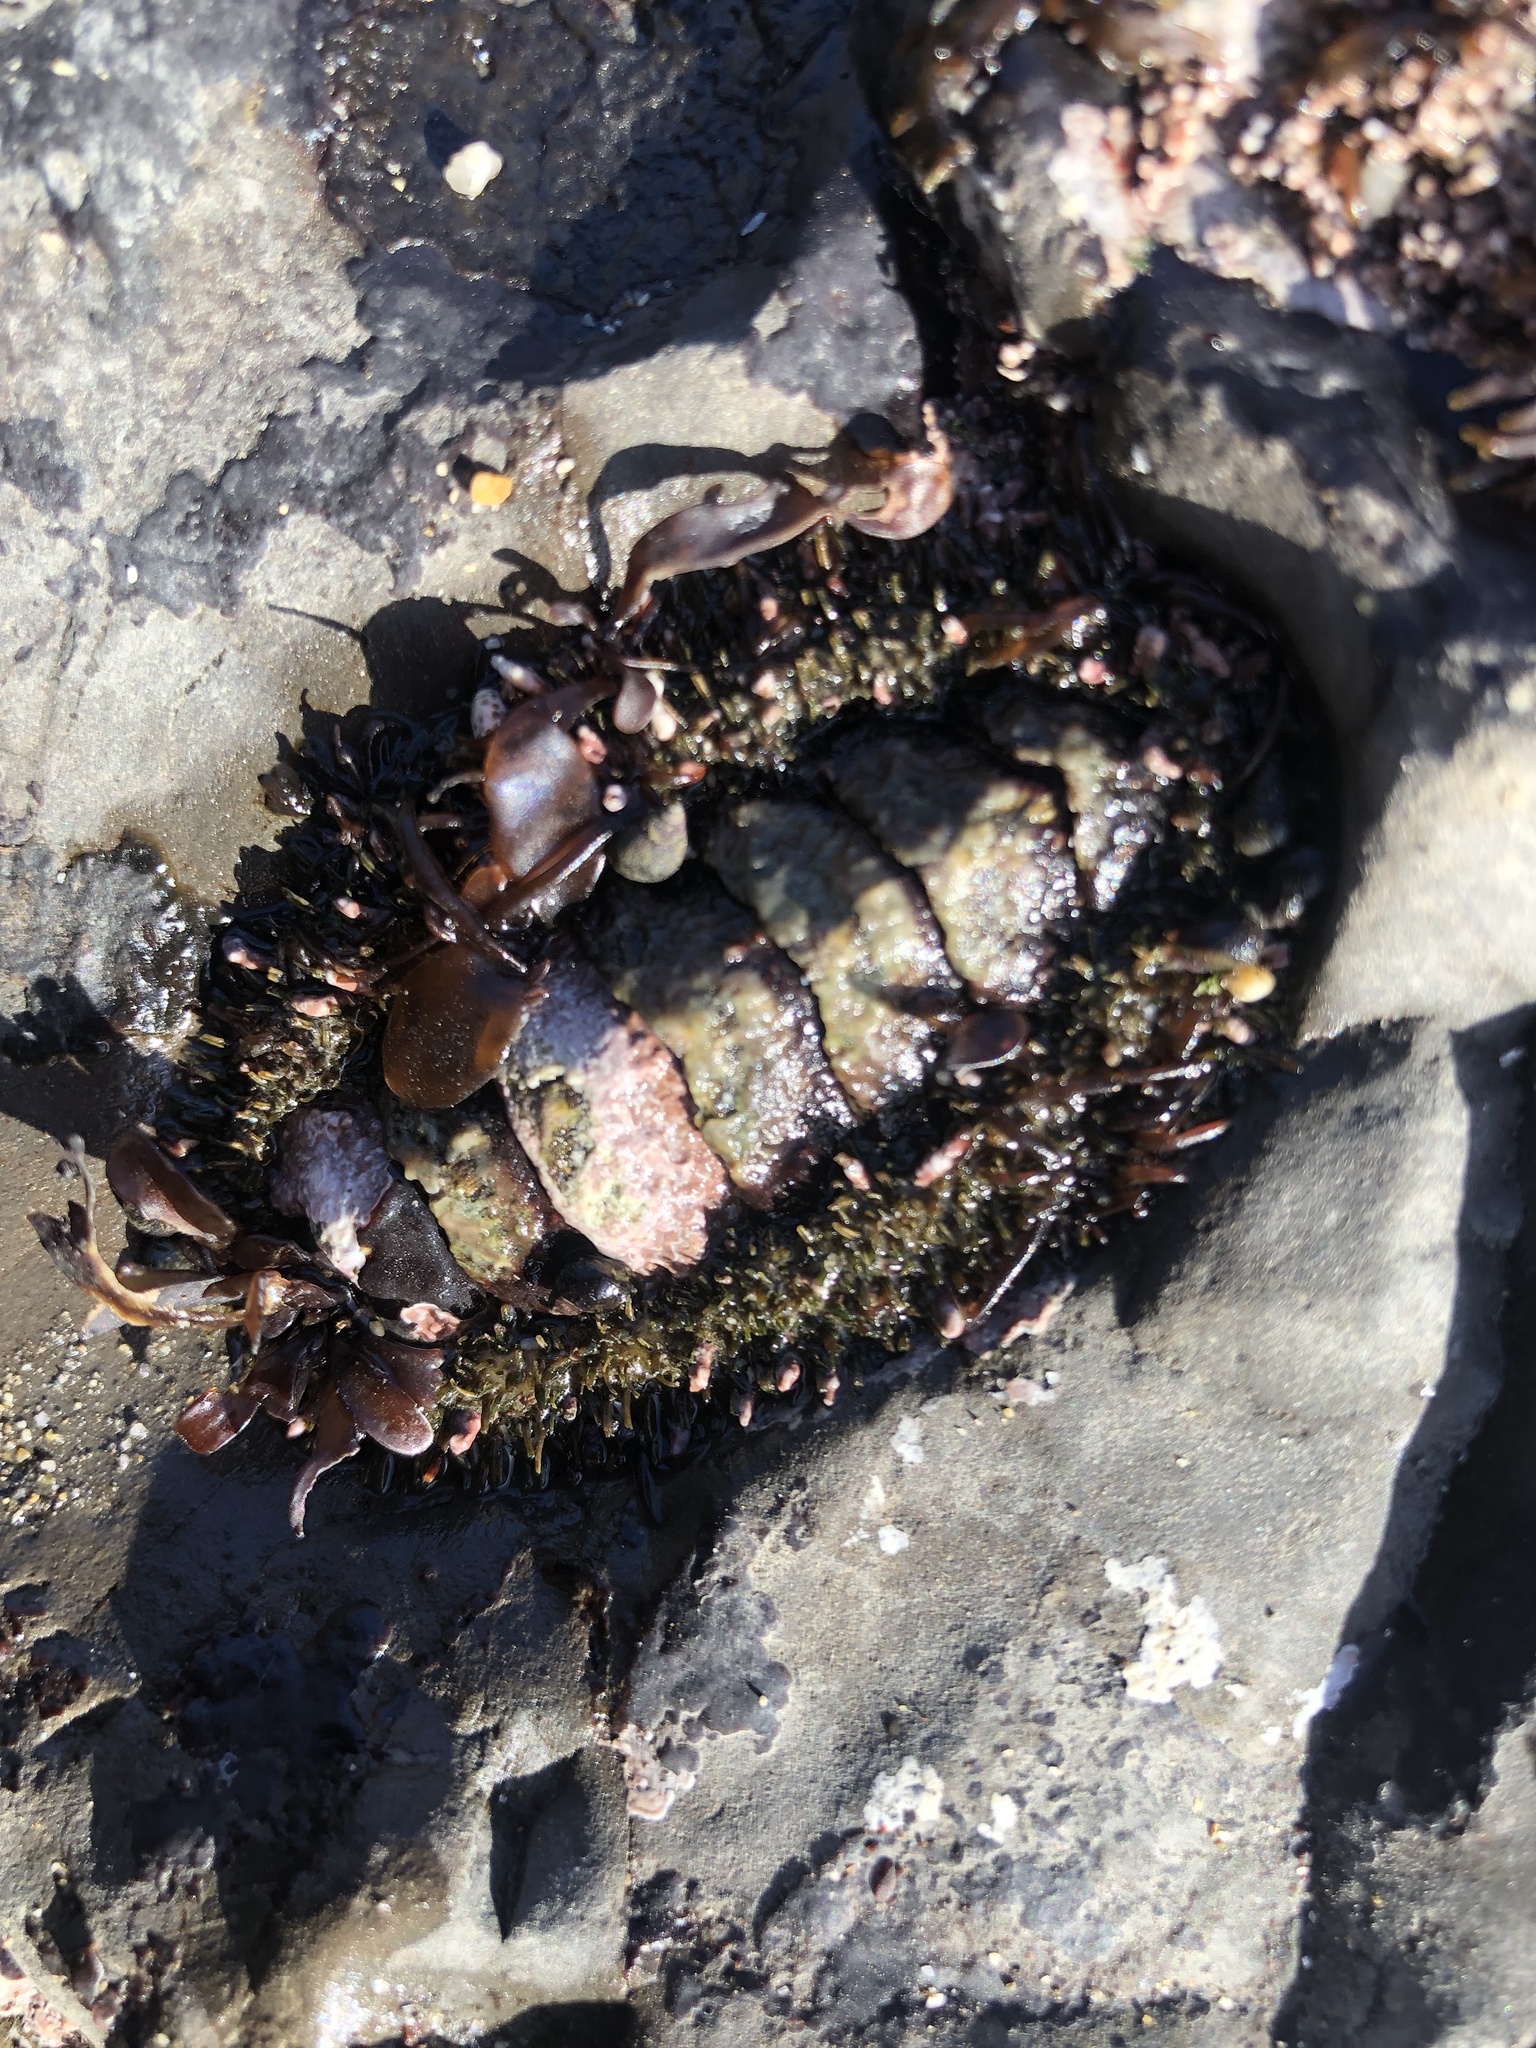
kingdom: Animalia
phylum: Mollusca
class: Polyplacophora
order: Chitonida
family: Mopaliidae
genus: Mopalia
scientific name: Mopalia muscosa
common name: Mossy chiton
